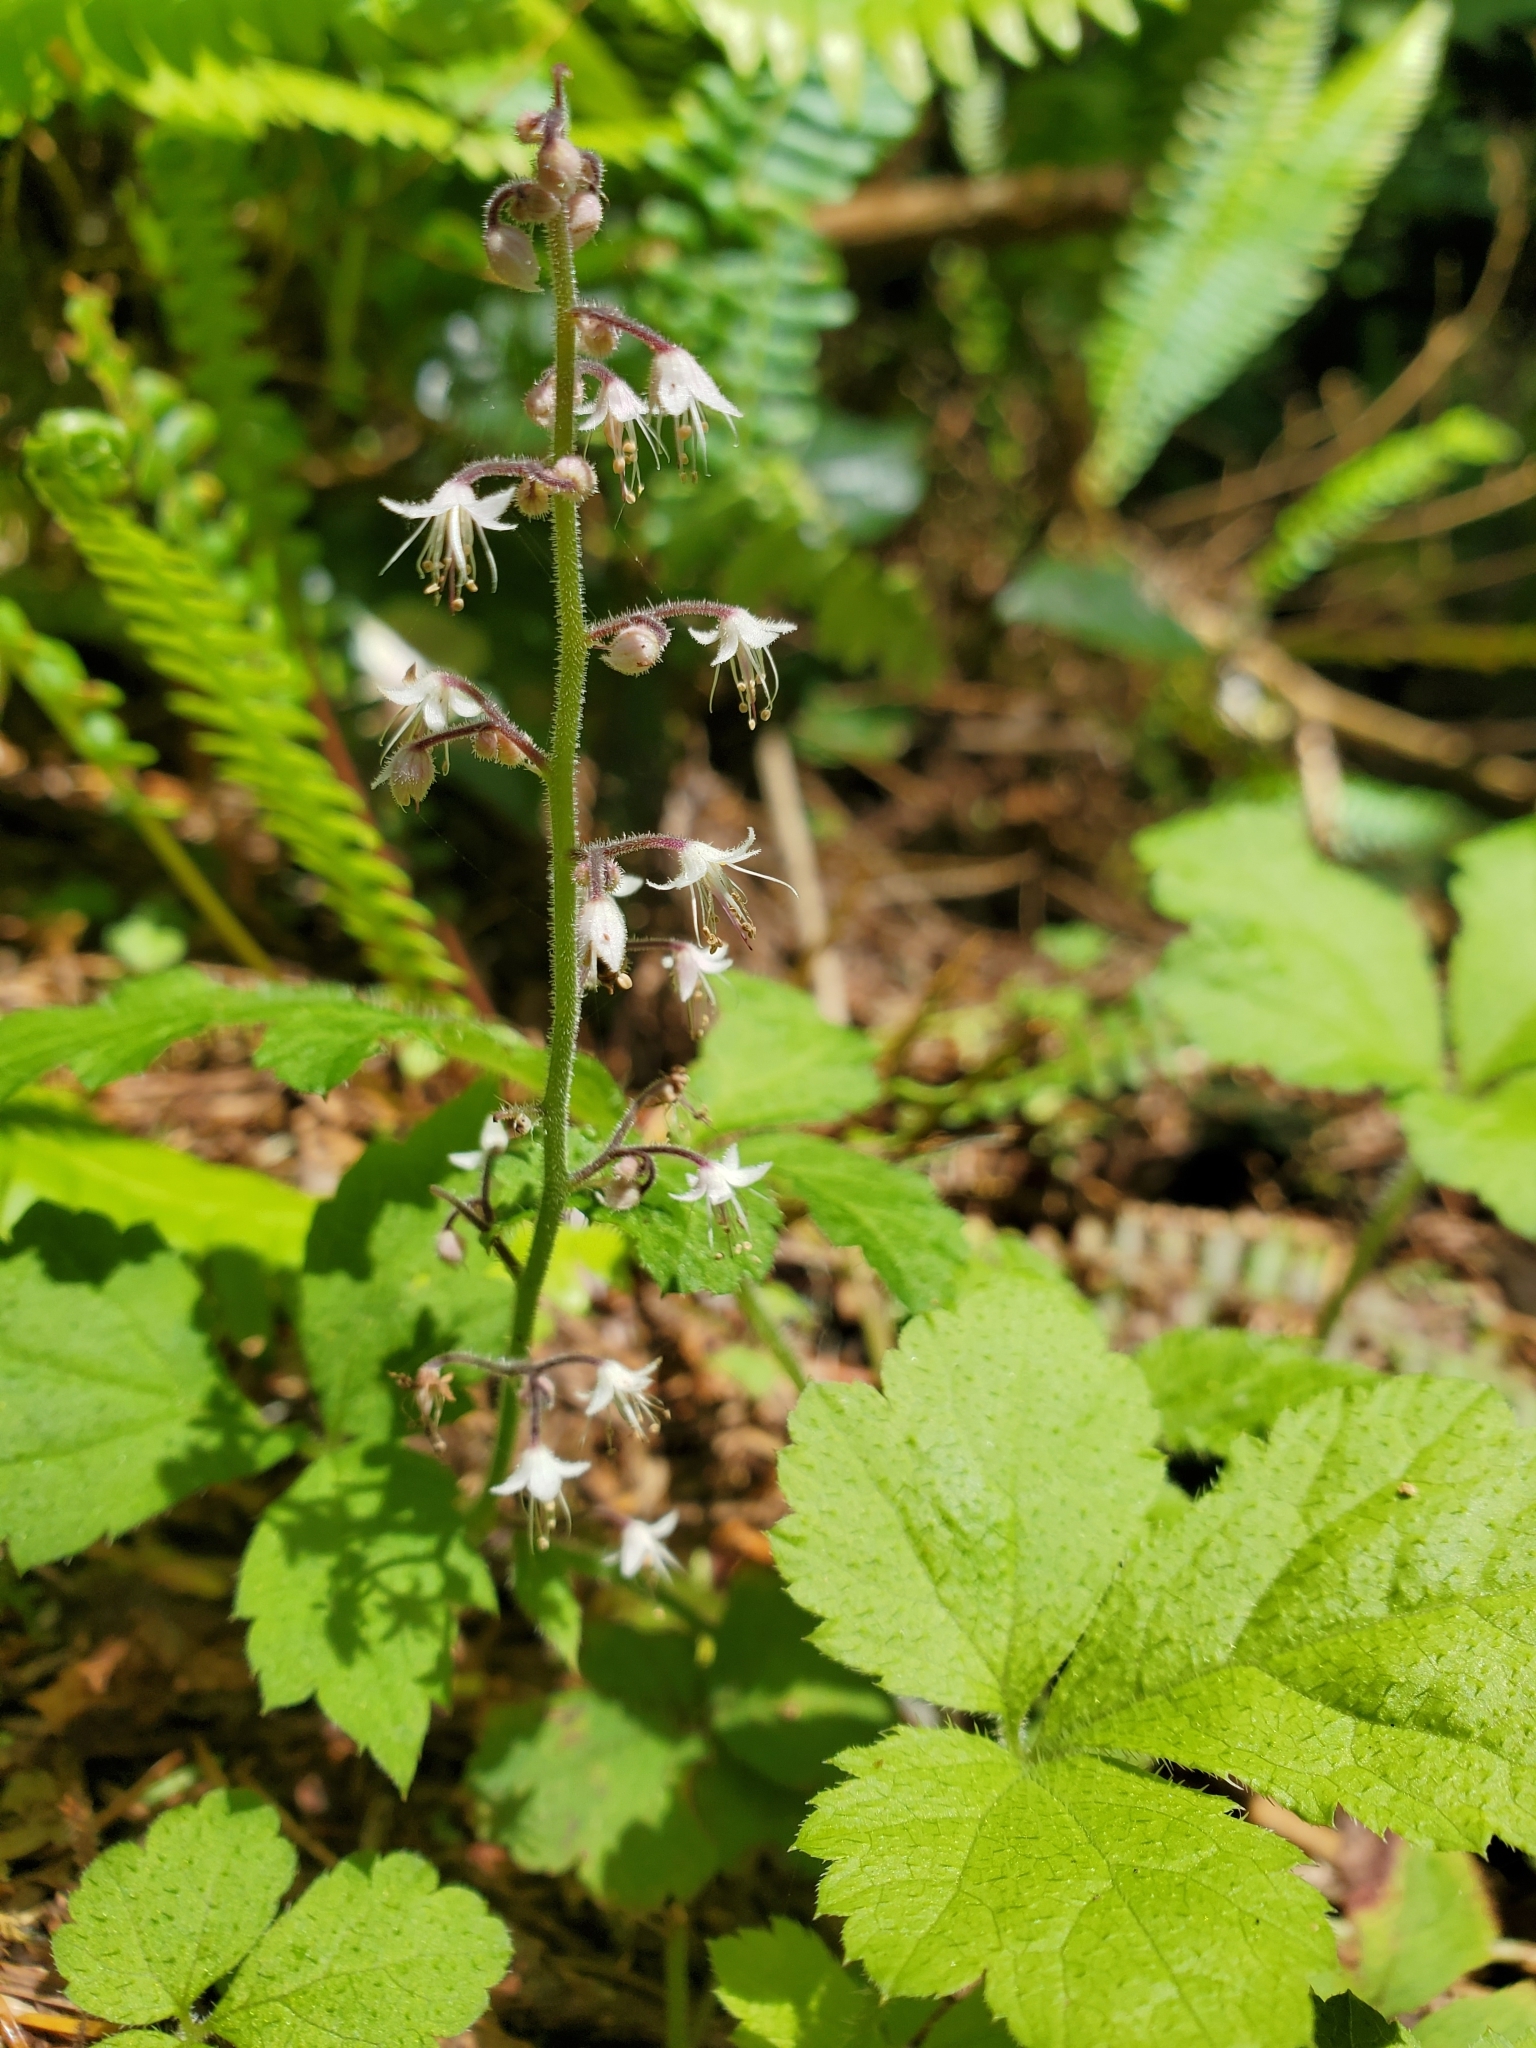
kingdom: Plantae
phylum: Tracheophyta
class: Magnoliopsida
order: Saxifragales
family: Saxifragaceae
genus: Tiarella
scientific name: Tiarella trifoliata
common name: Sugar-scoop
